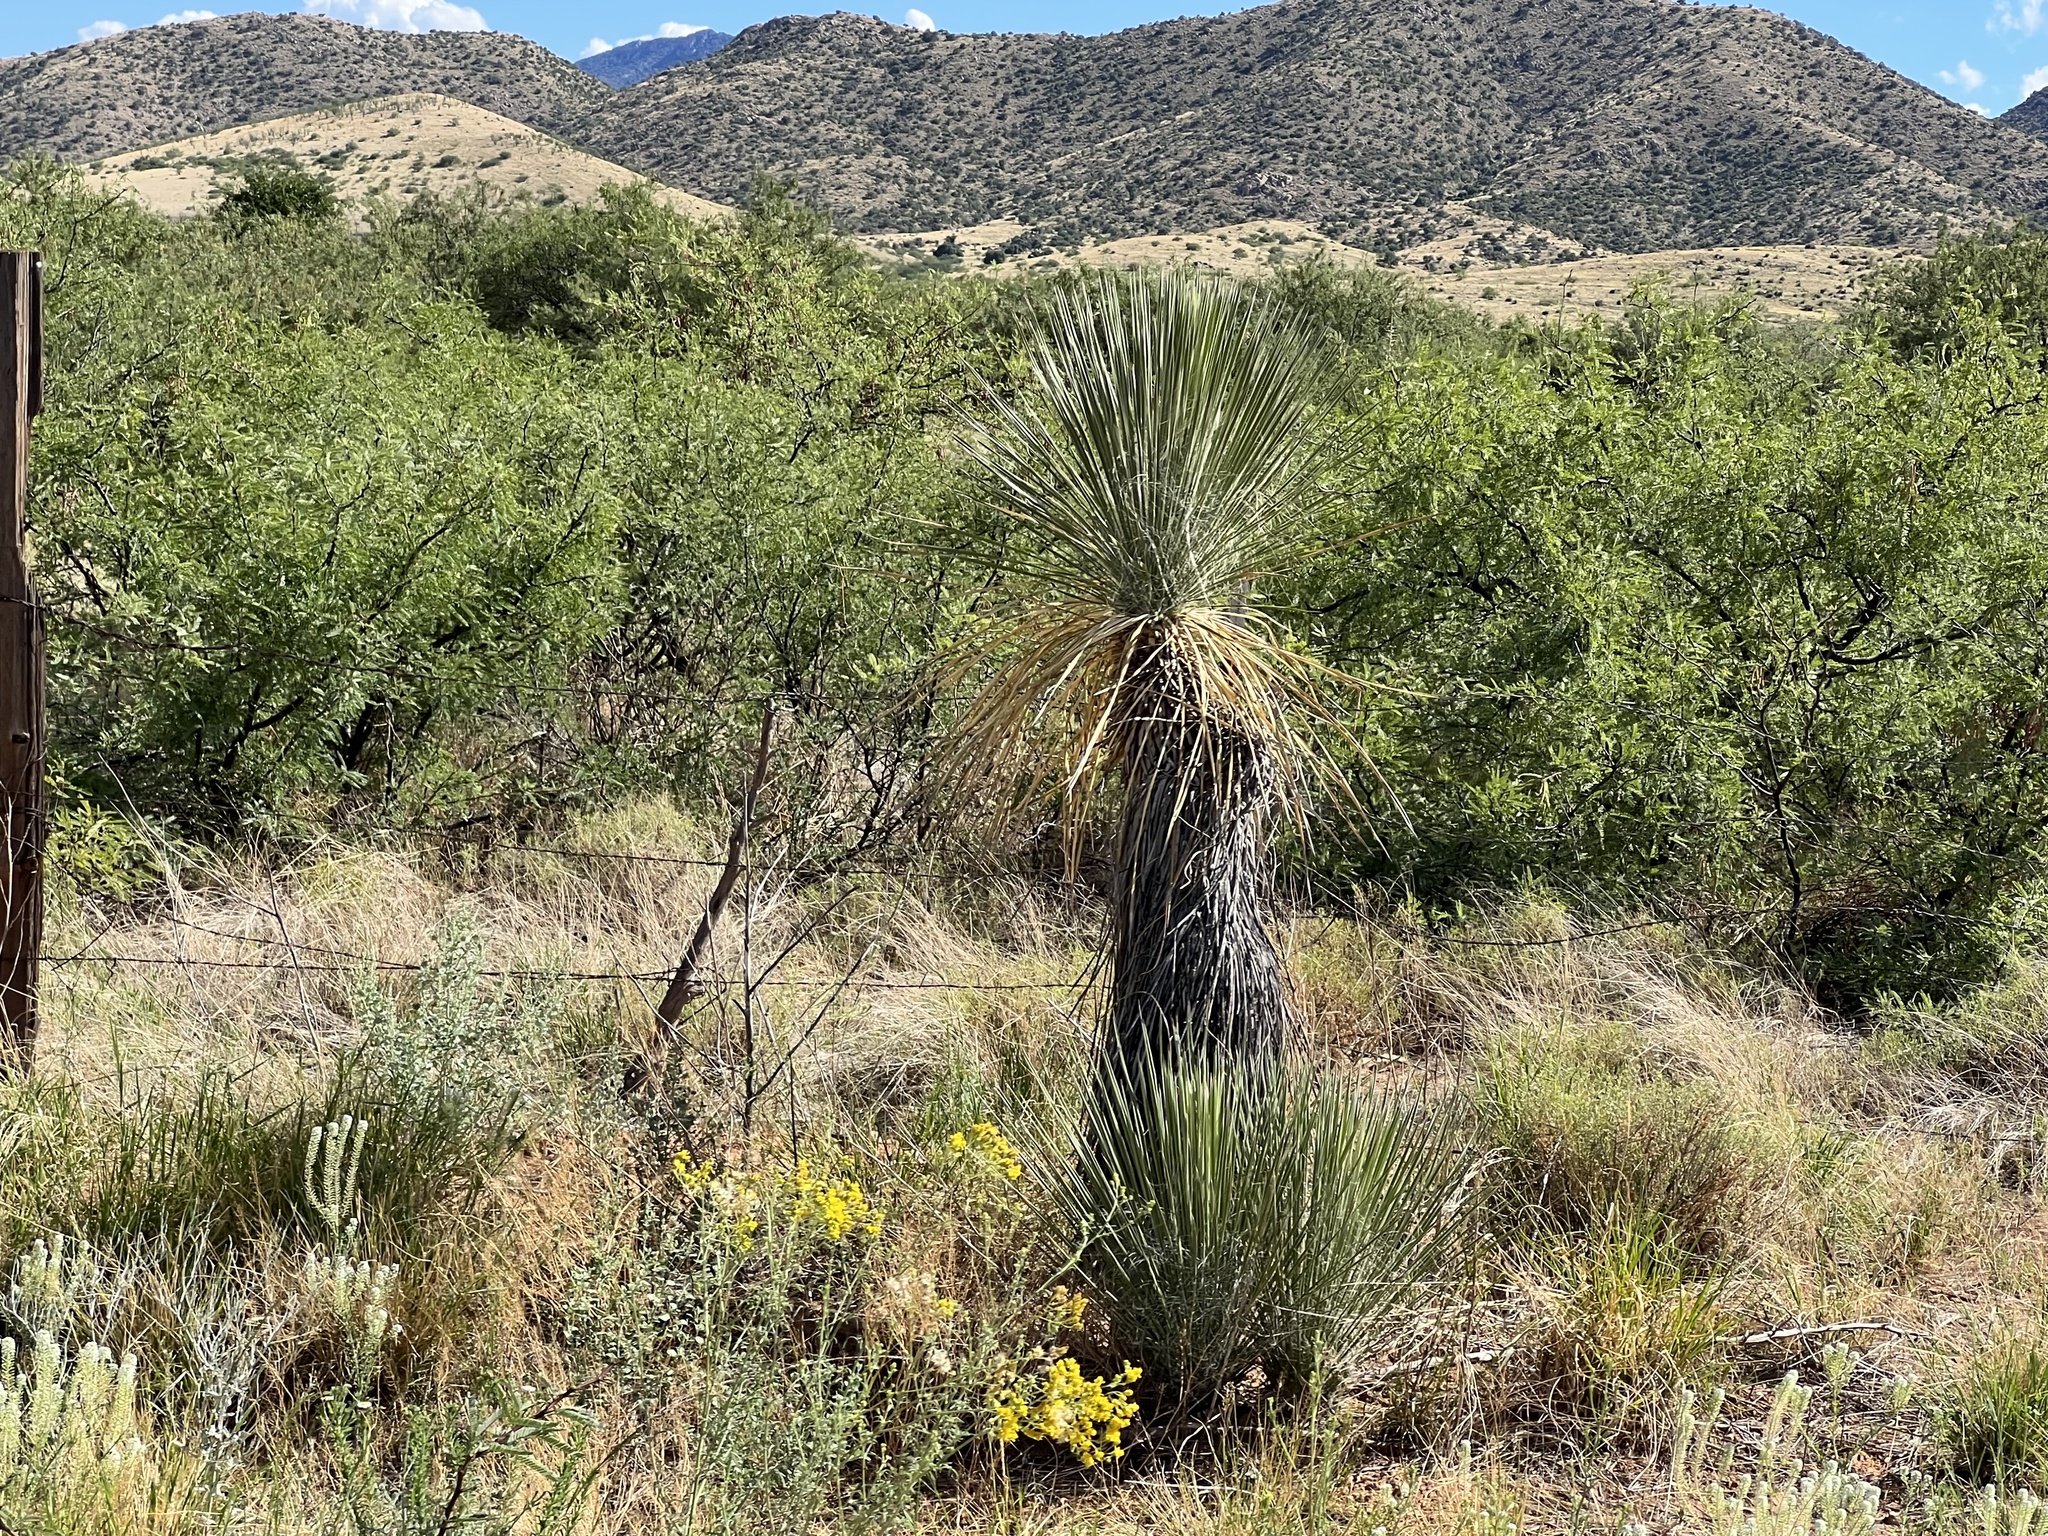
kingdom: Plantae
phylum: Tracheophyta
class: Liliopsida
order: Asparagales
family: Asparagaceae
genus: Yucca
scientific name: Yucca elata
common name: Palmella
